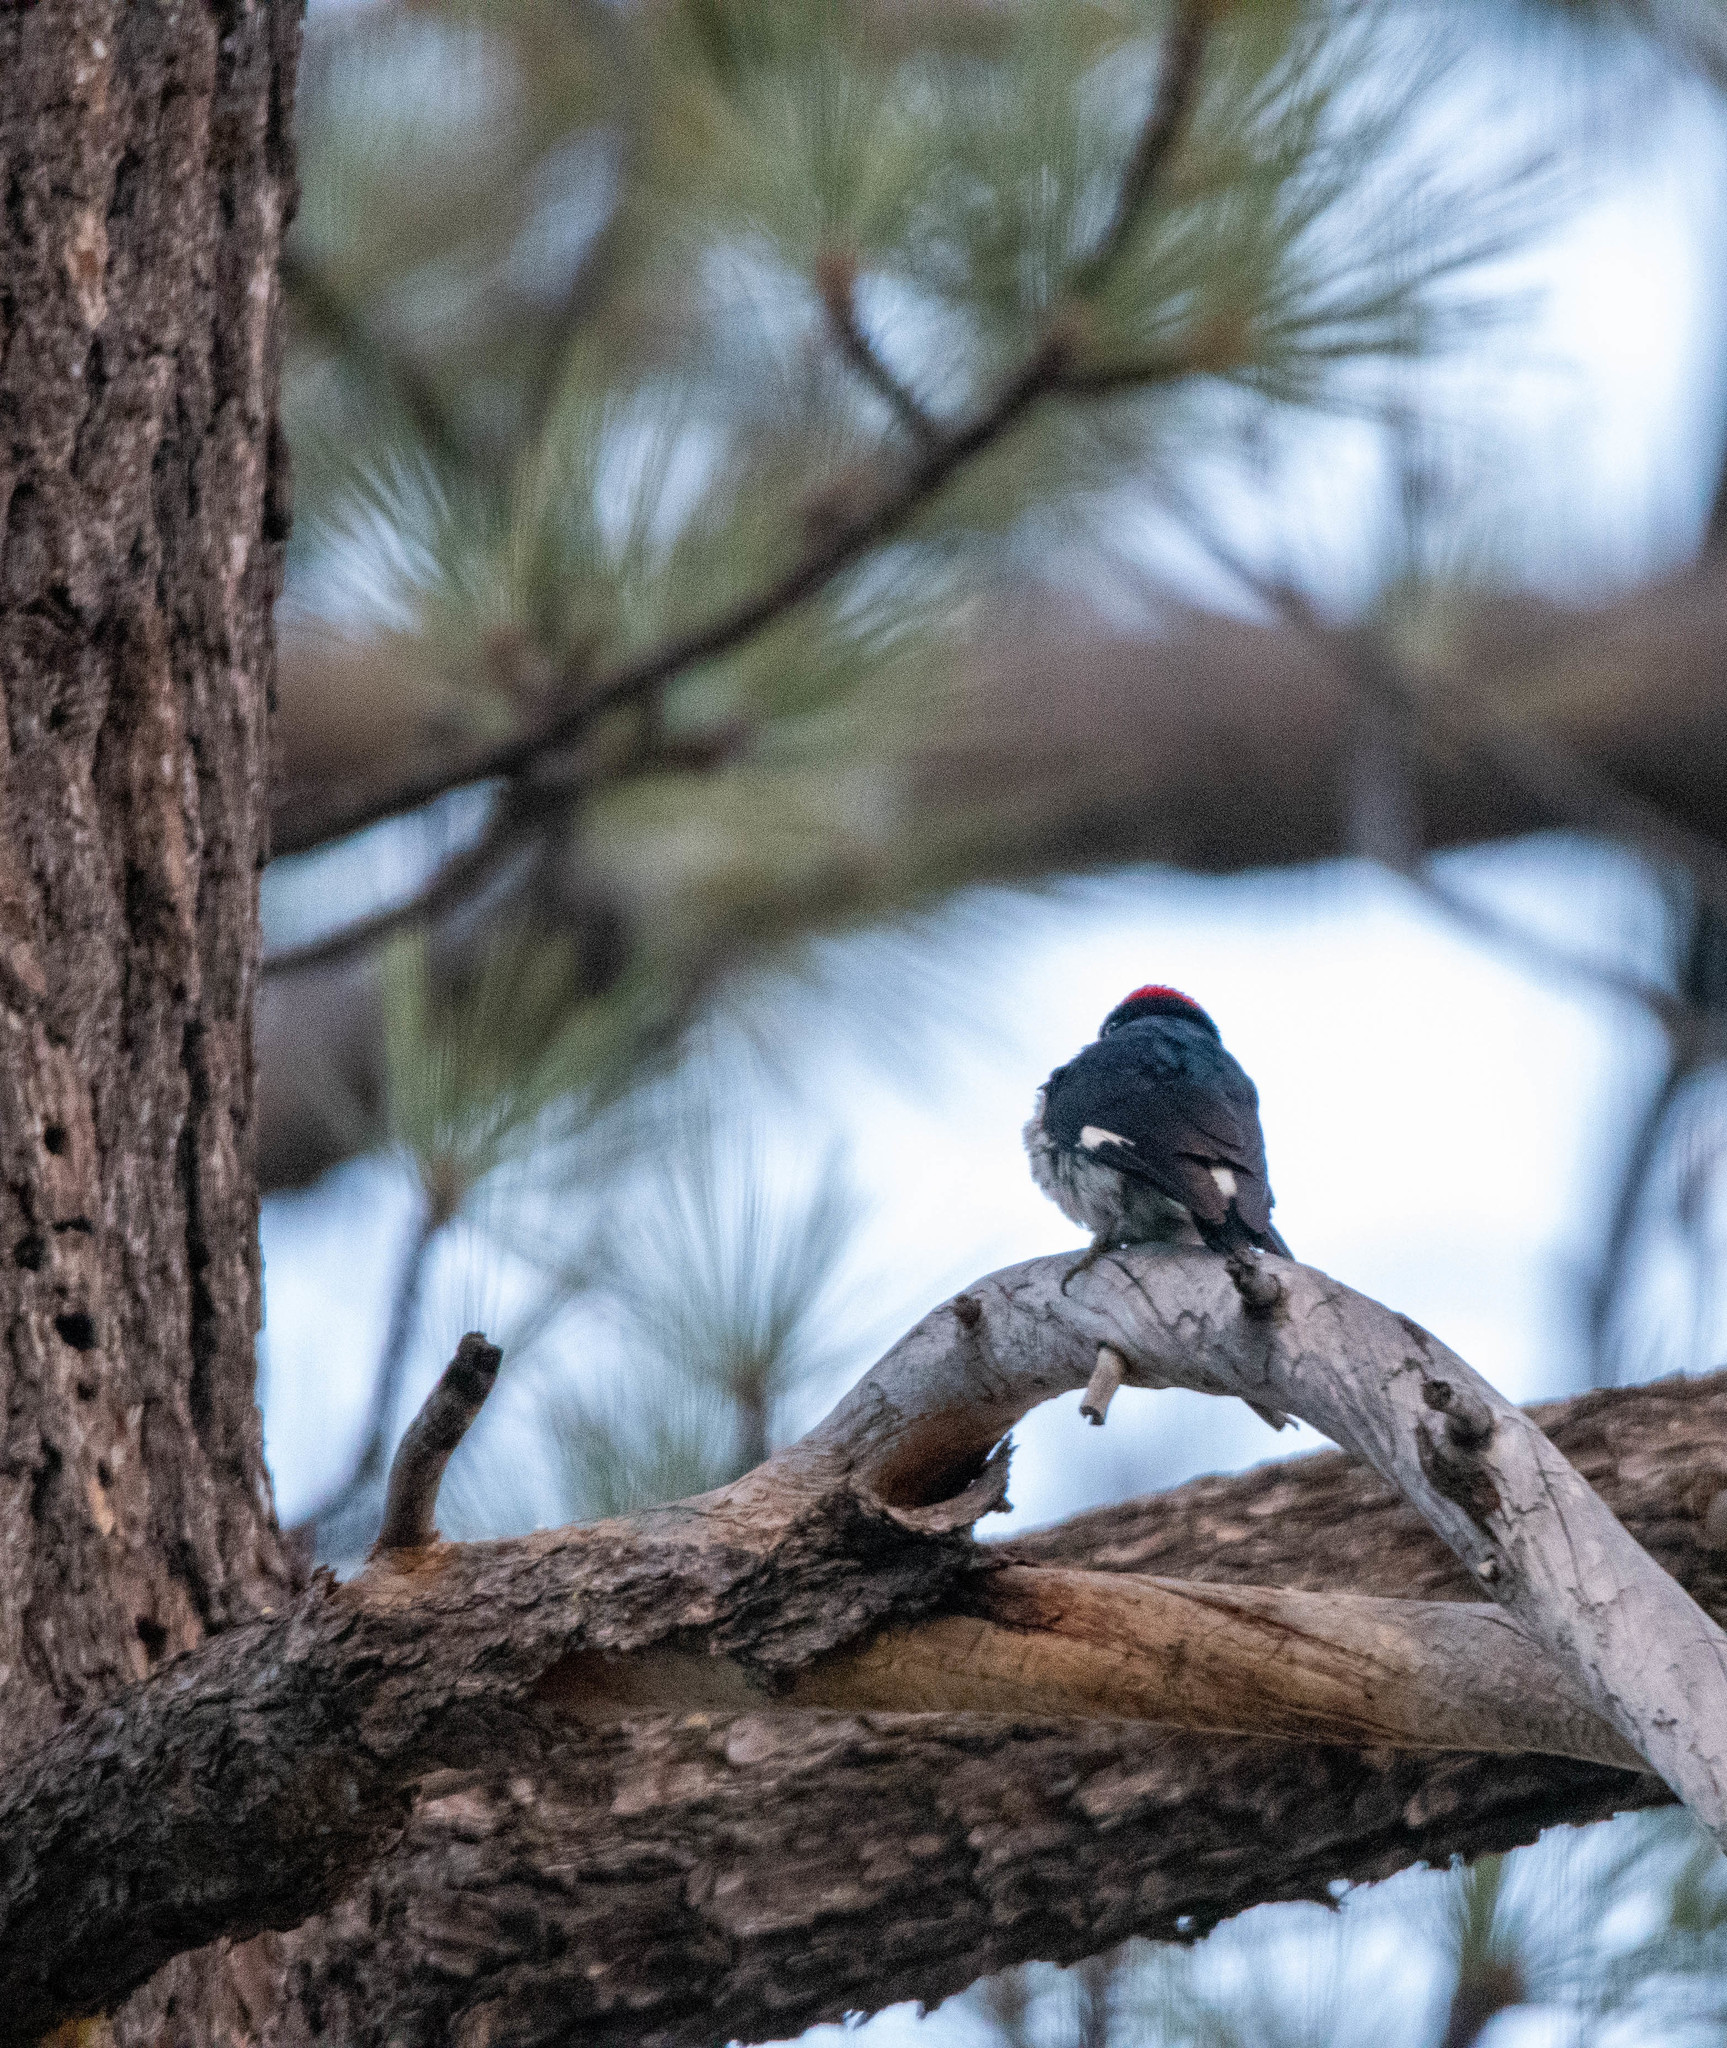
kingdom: Animalia
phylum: Chordata
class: Aves
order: Piciformes
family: Picidae
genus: Melanerpes
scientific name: Melanerpes formicivorus
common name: Acorn woodpecker
